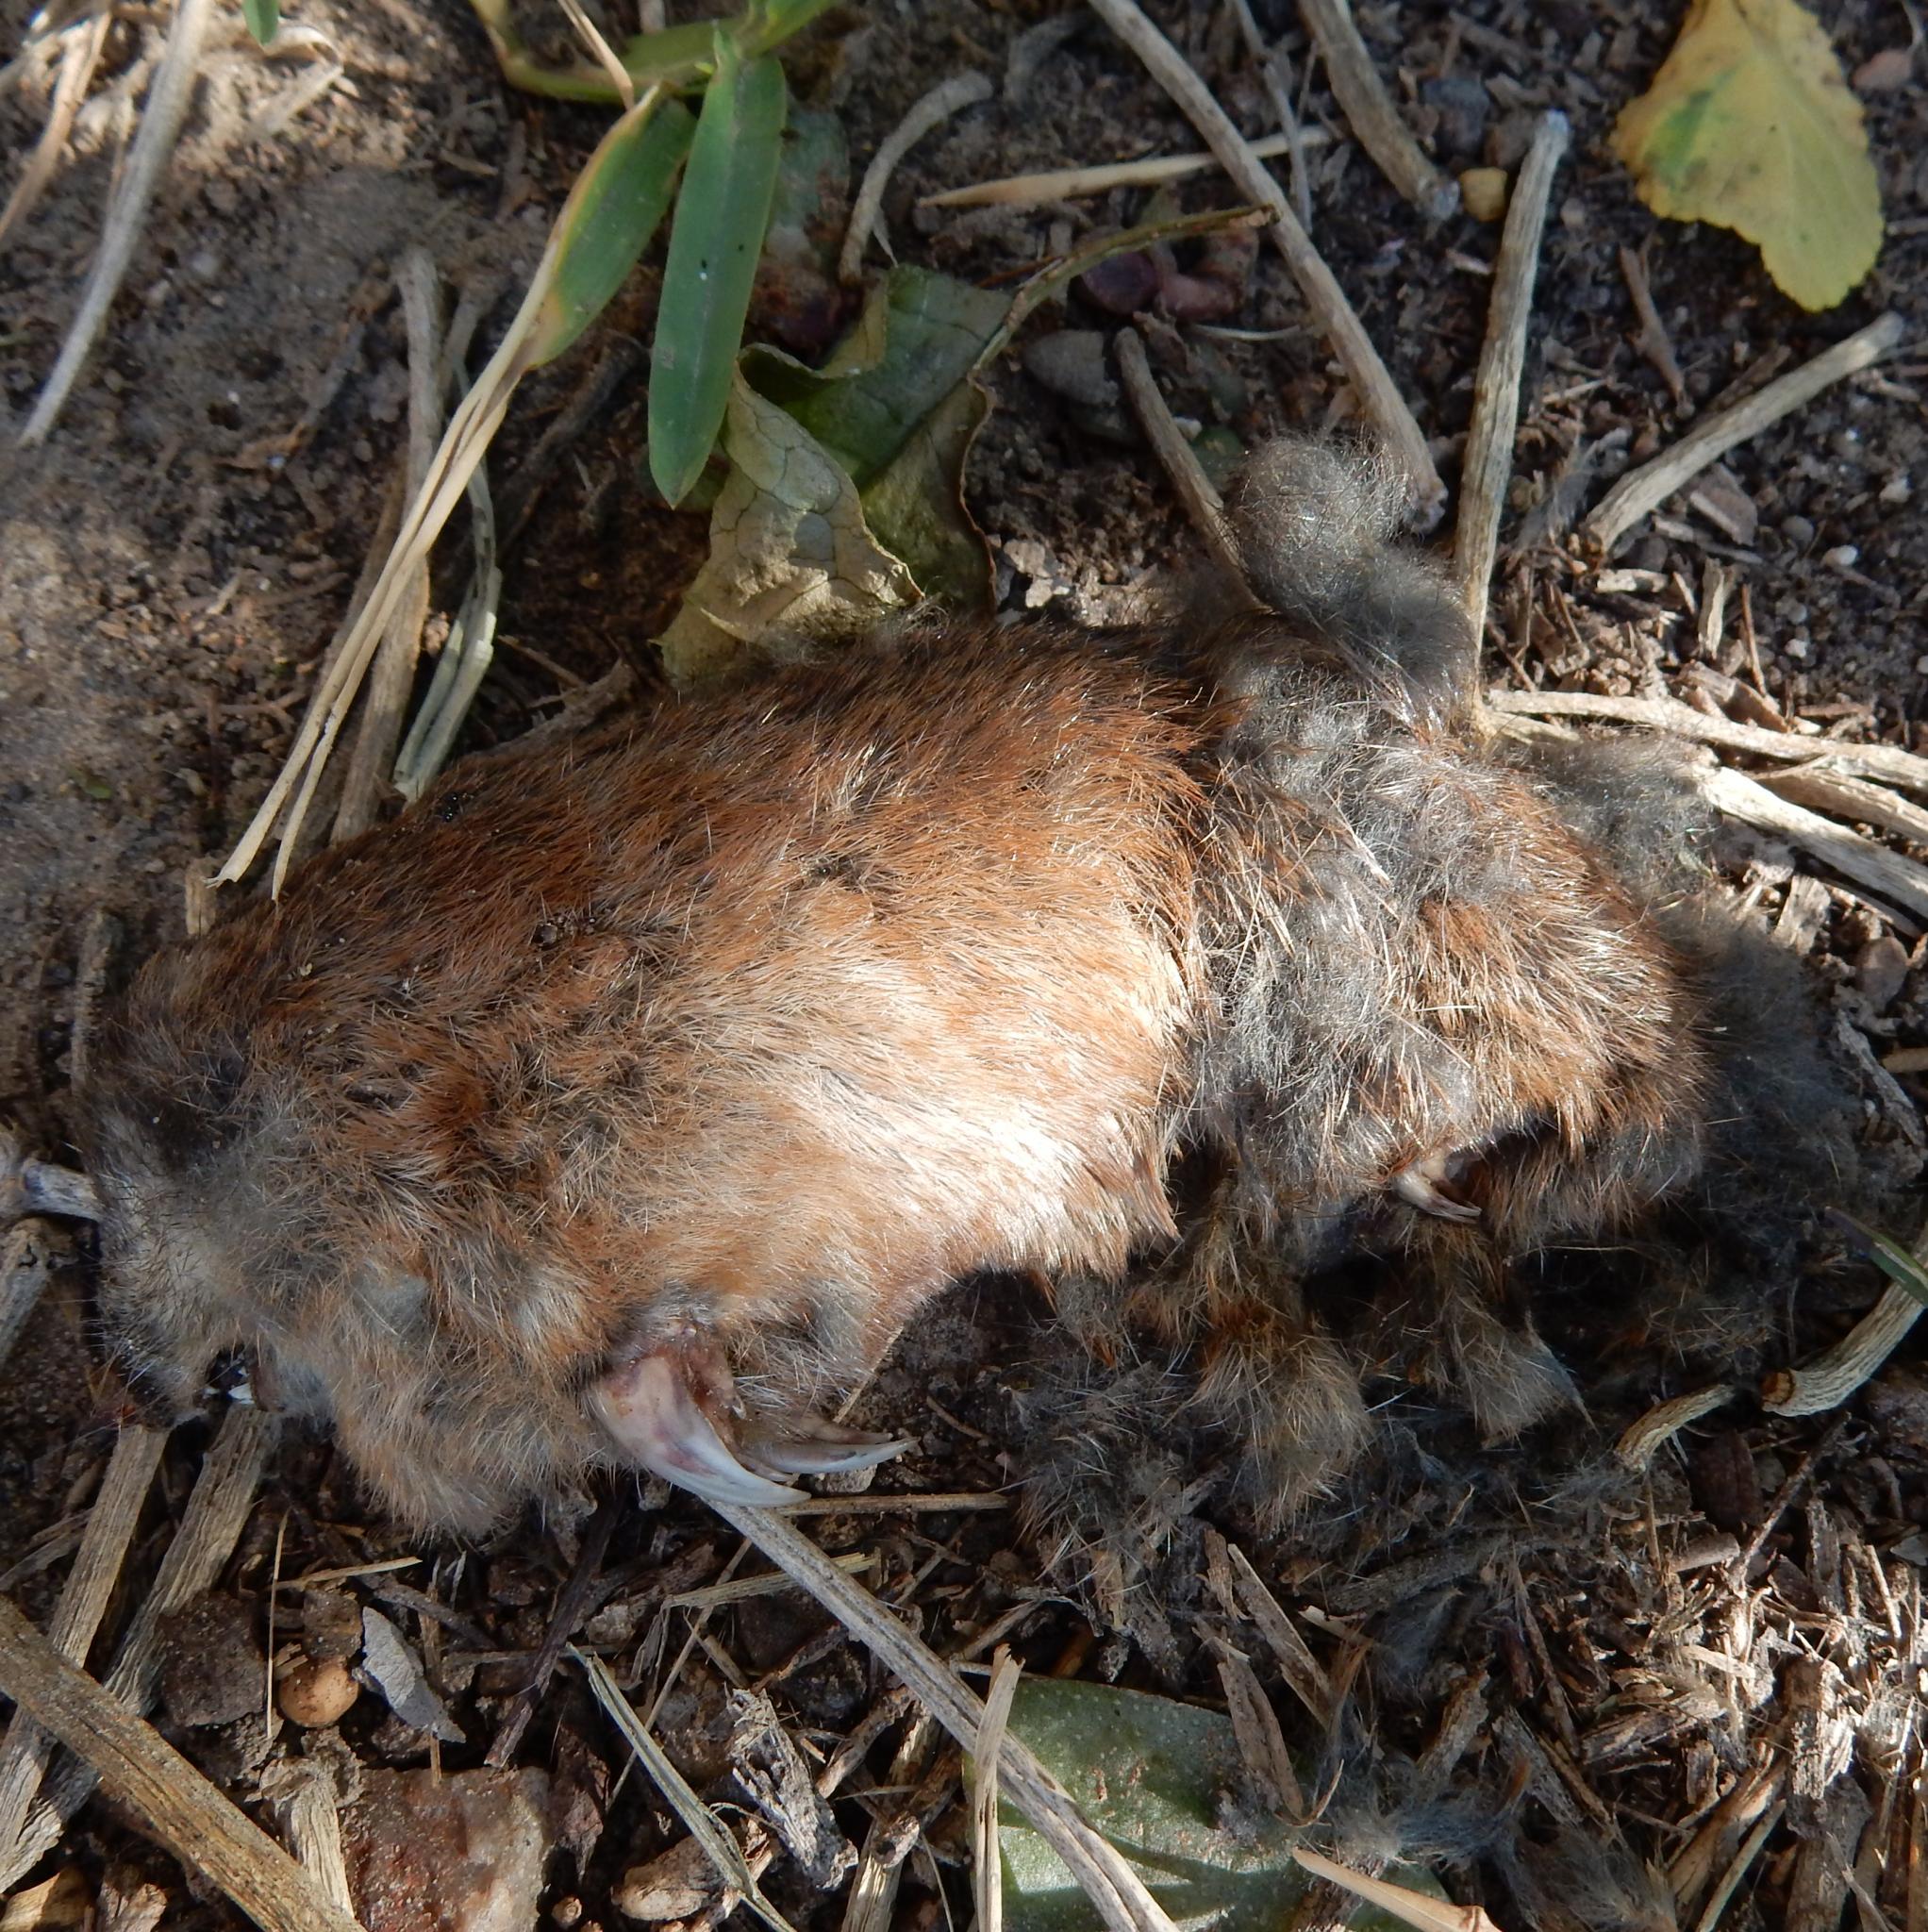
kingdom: Animalia
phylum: Chordata
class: Mammalia
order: Afrosoricida
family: Chrysochloridae
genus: Amblysomus
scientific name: Amblysomus hottentotus
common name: Hottentot golden mole
